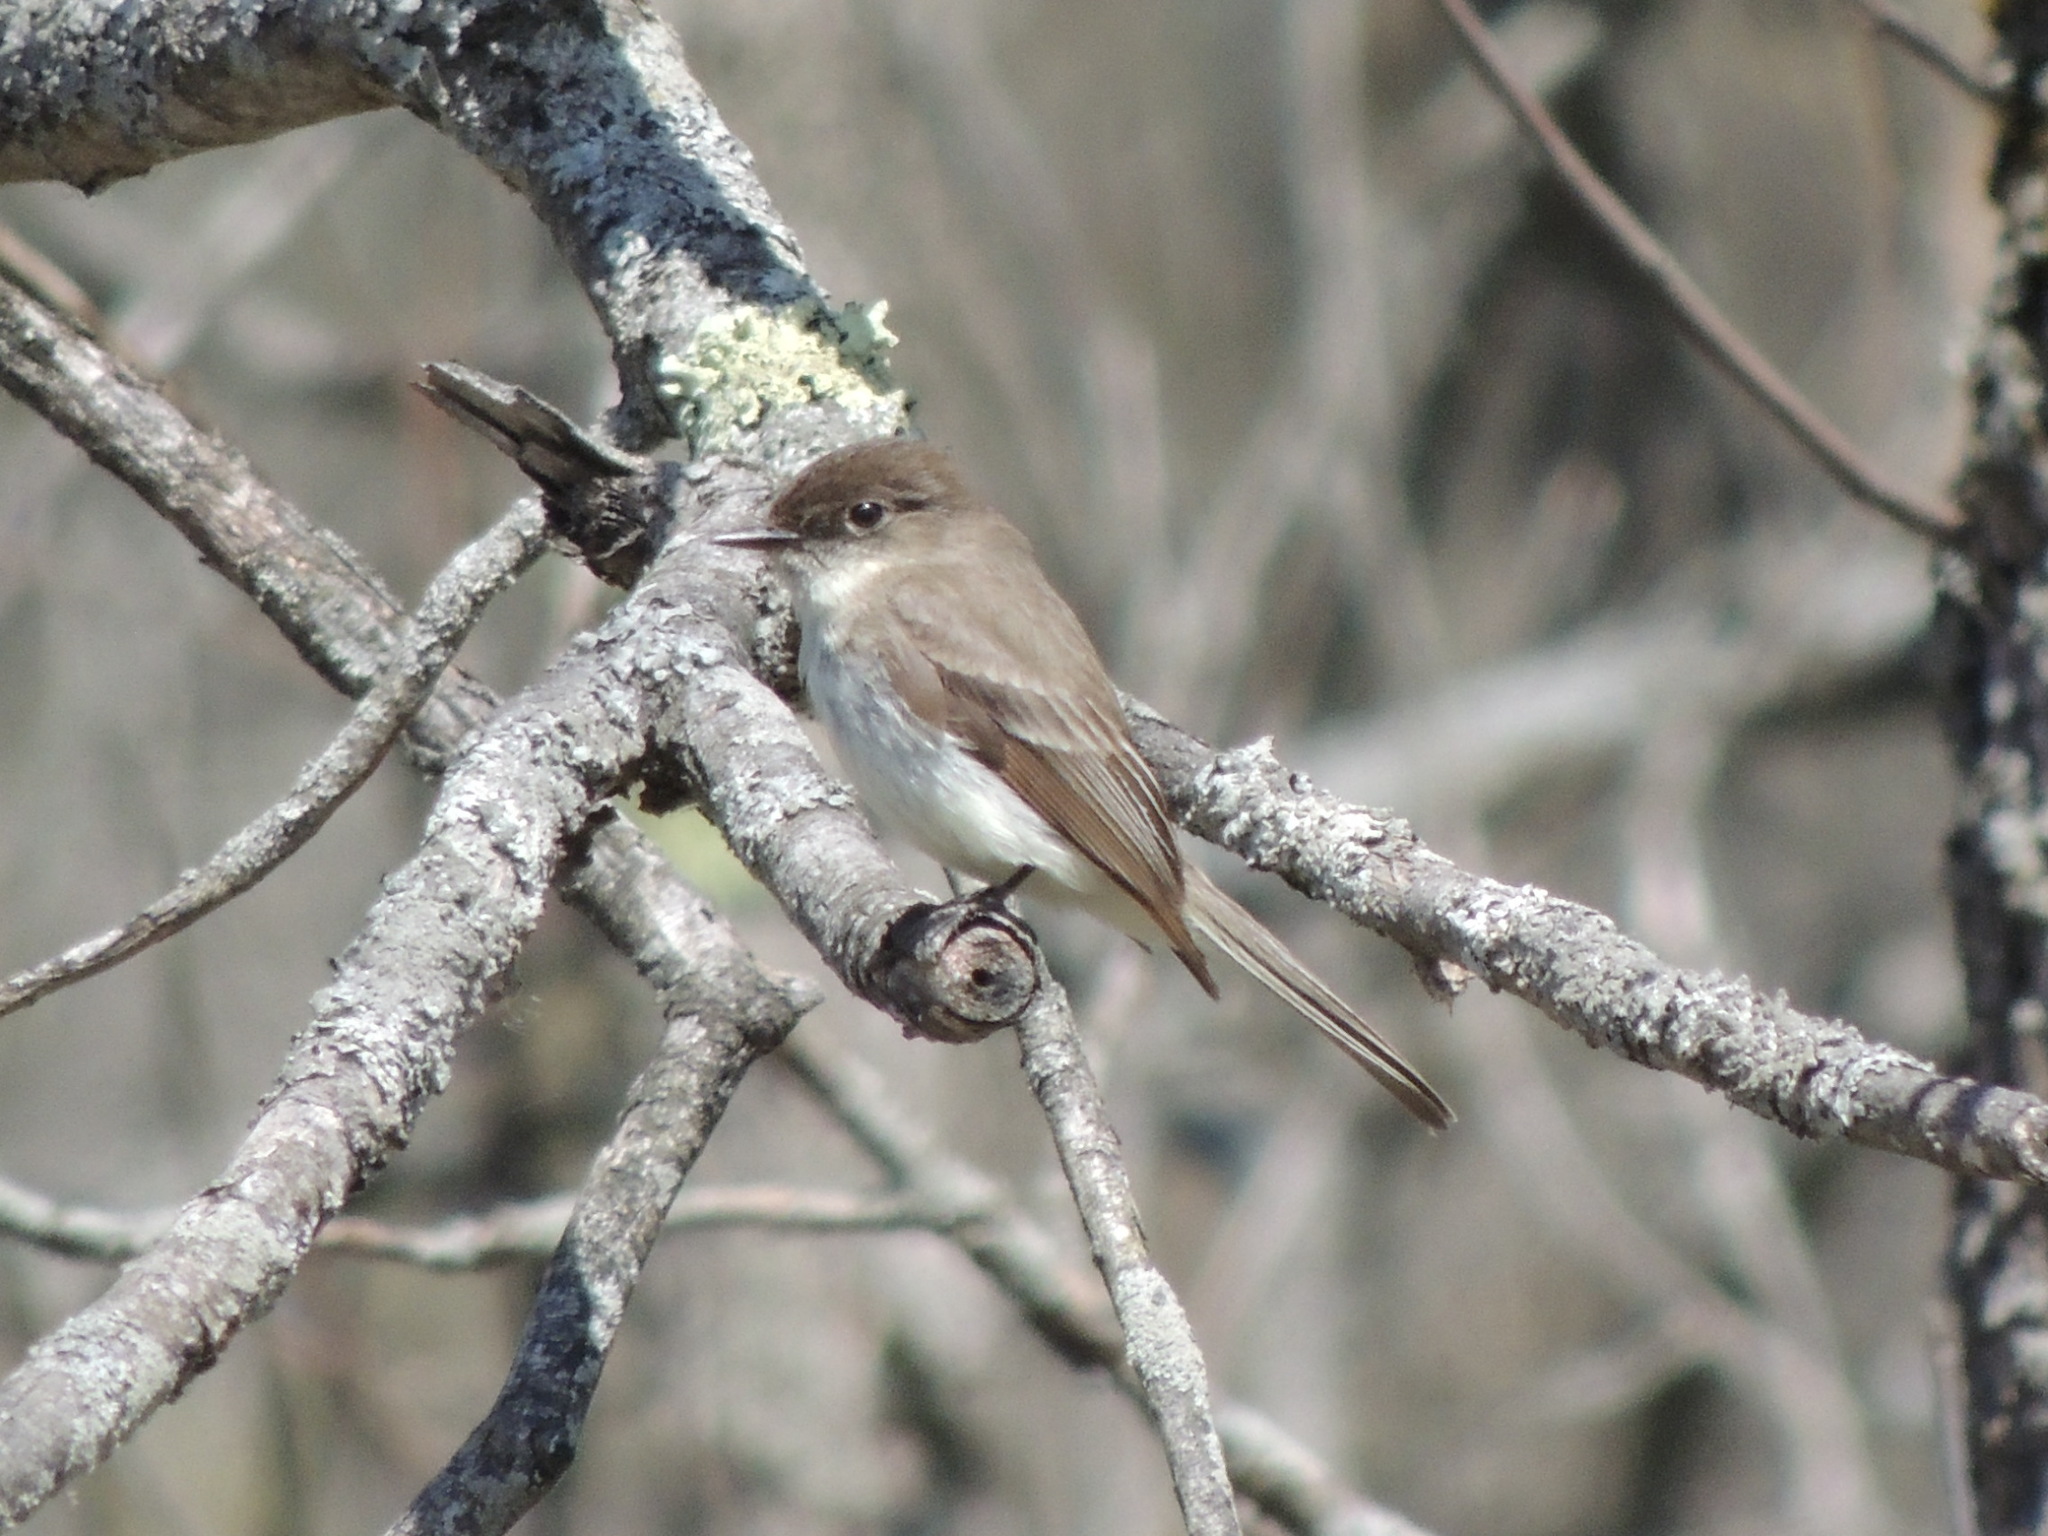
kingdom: Animalia
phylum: Chordata
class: Aves
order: Passeriformes
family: Tyrannidae
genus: Sayornis
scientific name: Sayornis phoebe
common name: Eastern phoebe
